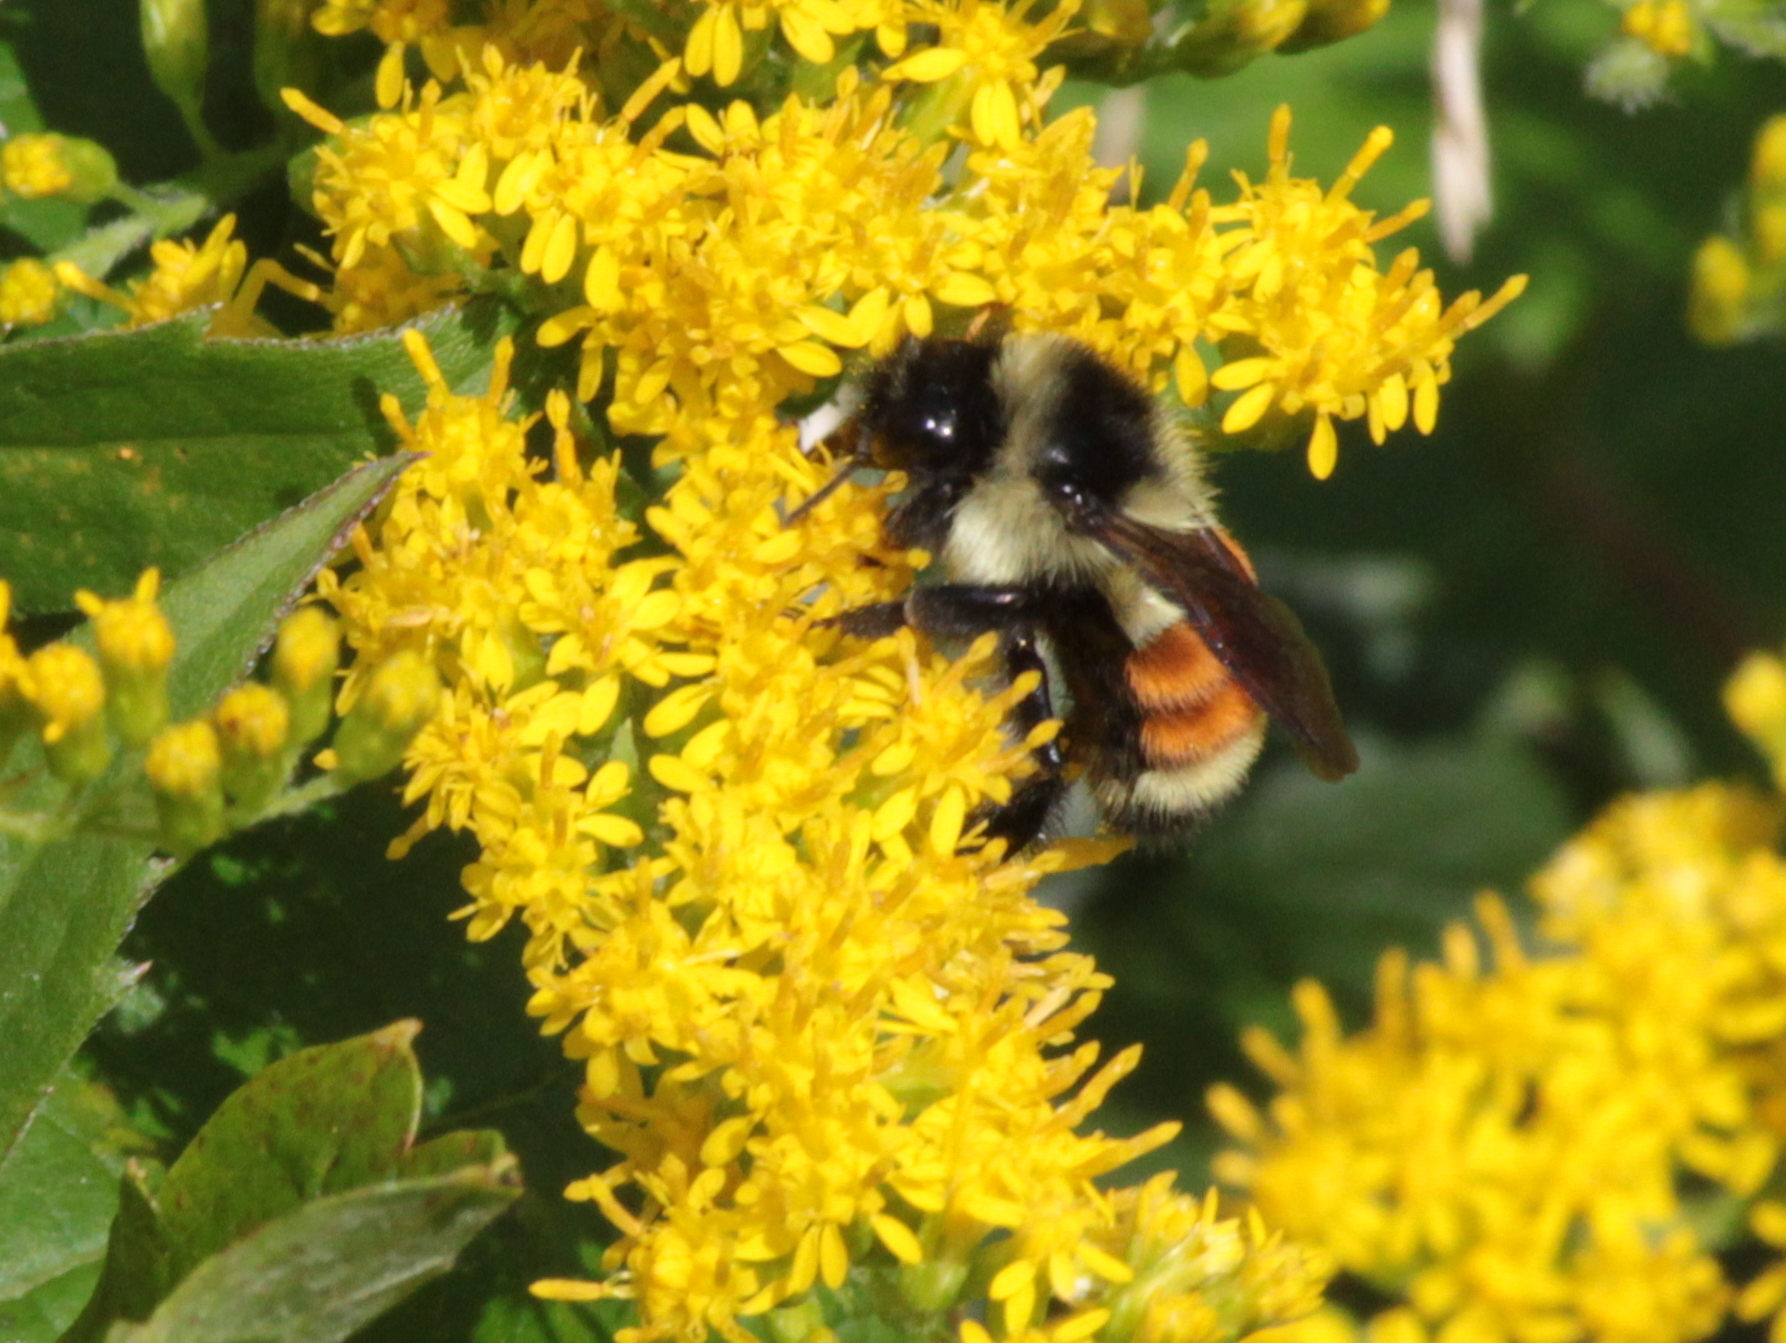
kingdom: Animalia
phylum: Arthropoda
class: Insecta
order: Hymenoptera
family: Apidae
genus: Bombus
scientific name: Bombus ternarius
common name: Tri-colored bumble bee
